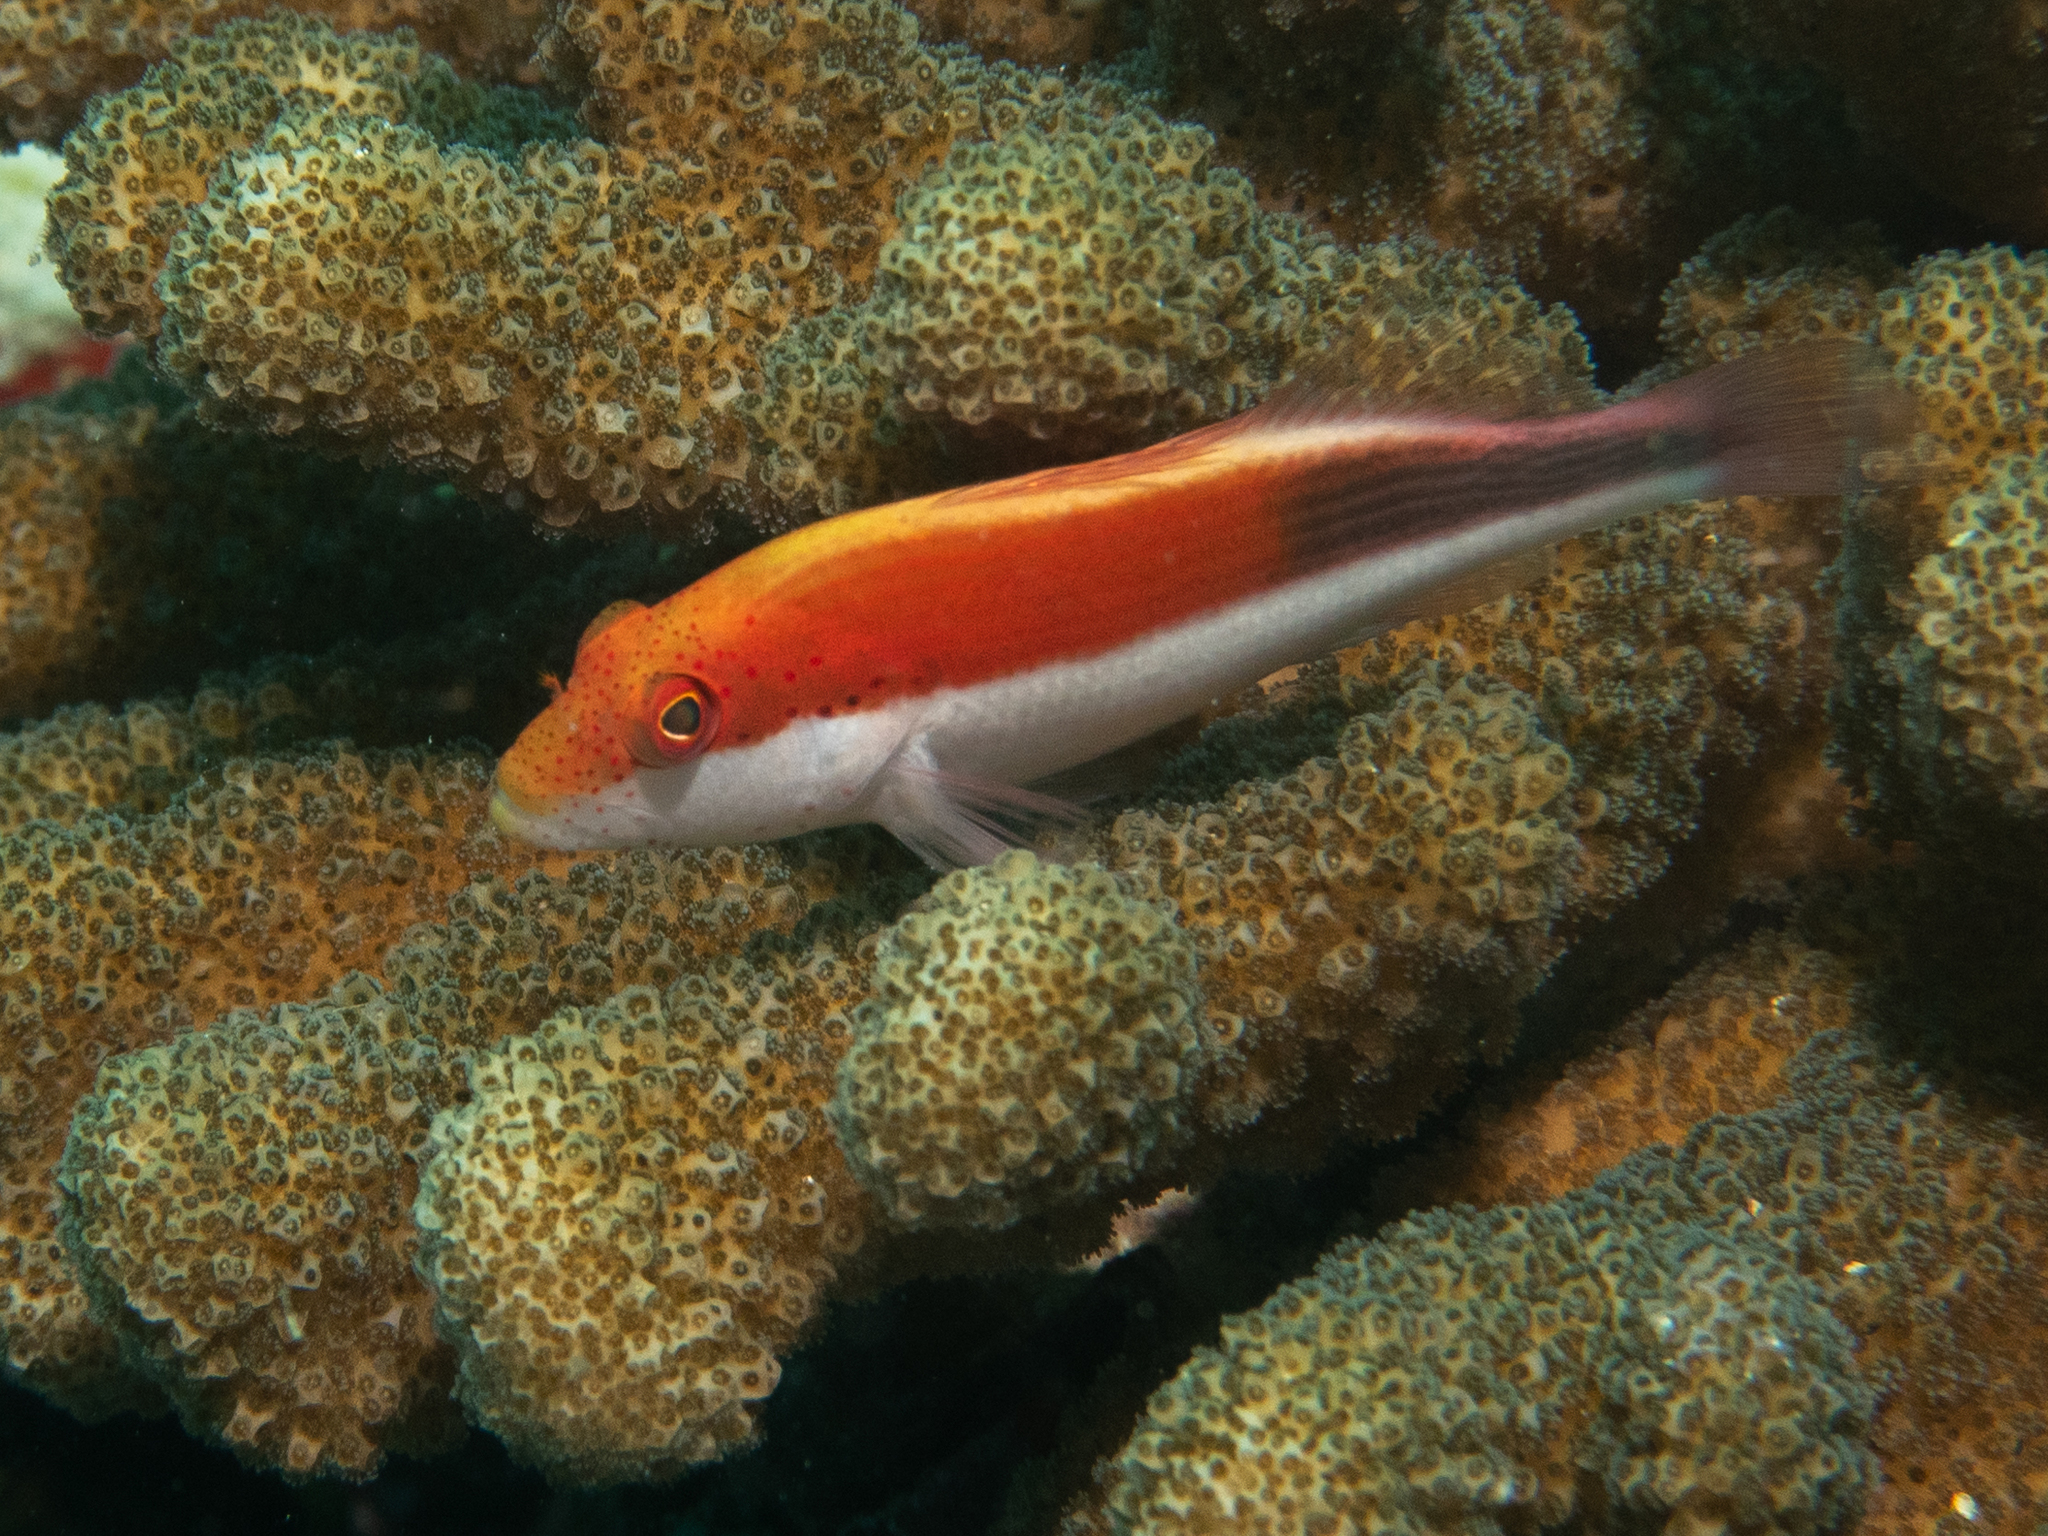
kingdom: Animalia
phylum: Chordata
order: Perciformes
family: Cirrhitidae
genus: Paracirrhites
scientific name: Paracirrhites forsteri
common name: Freckled hawkfish
